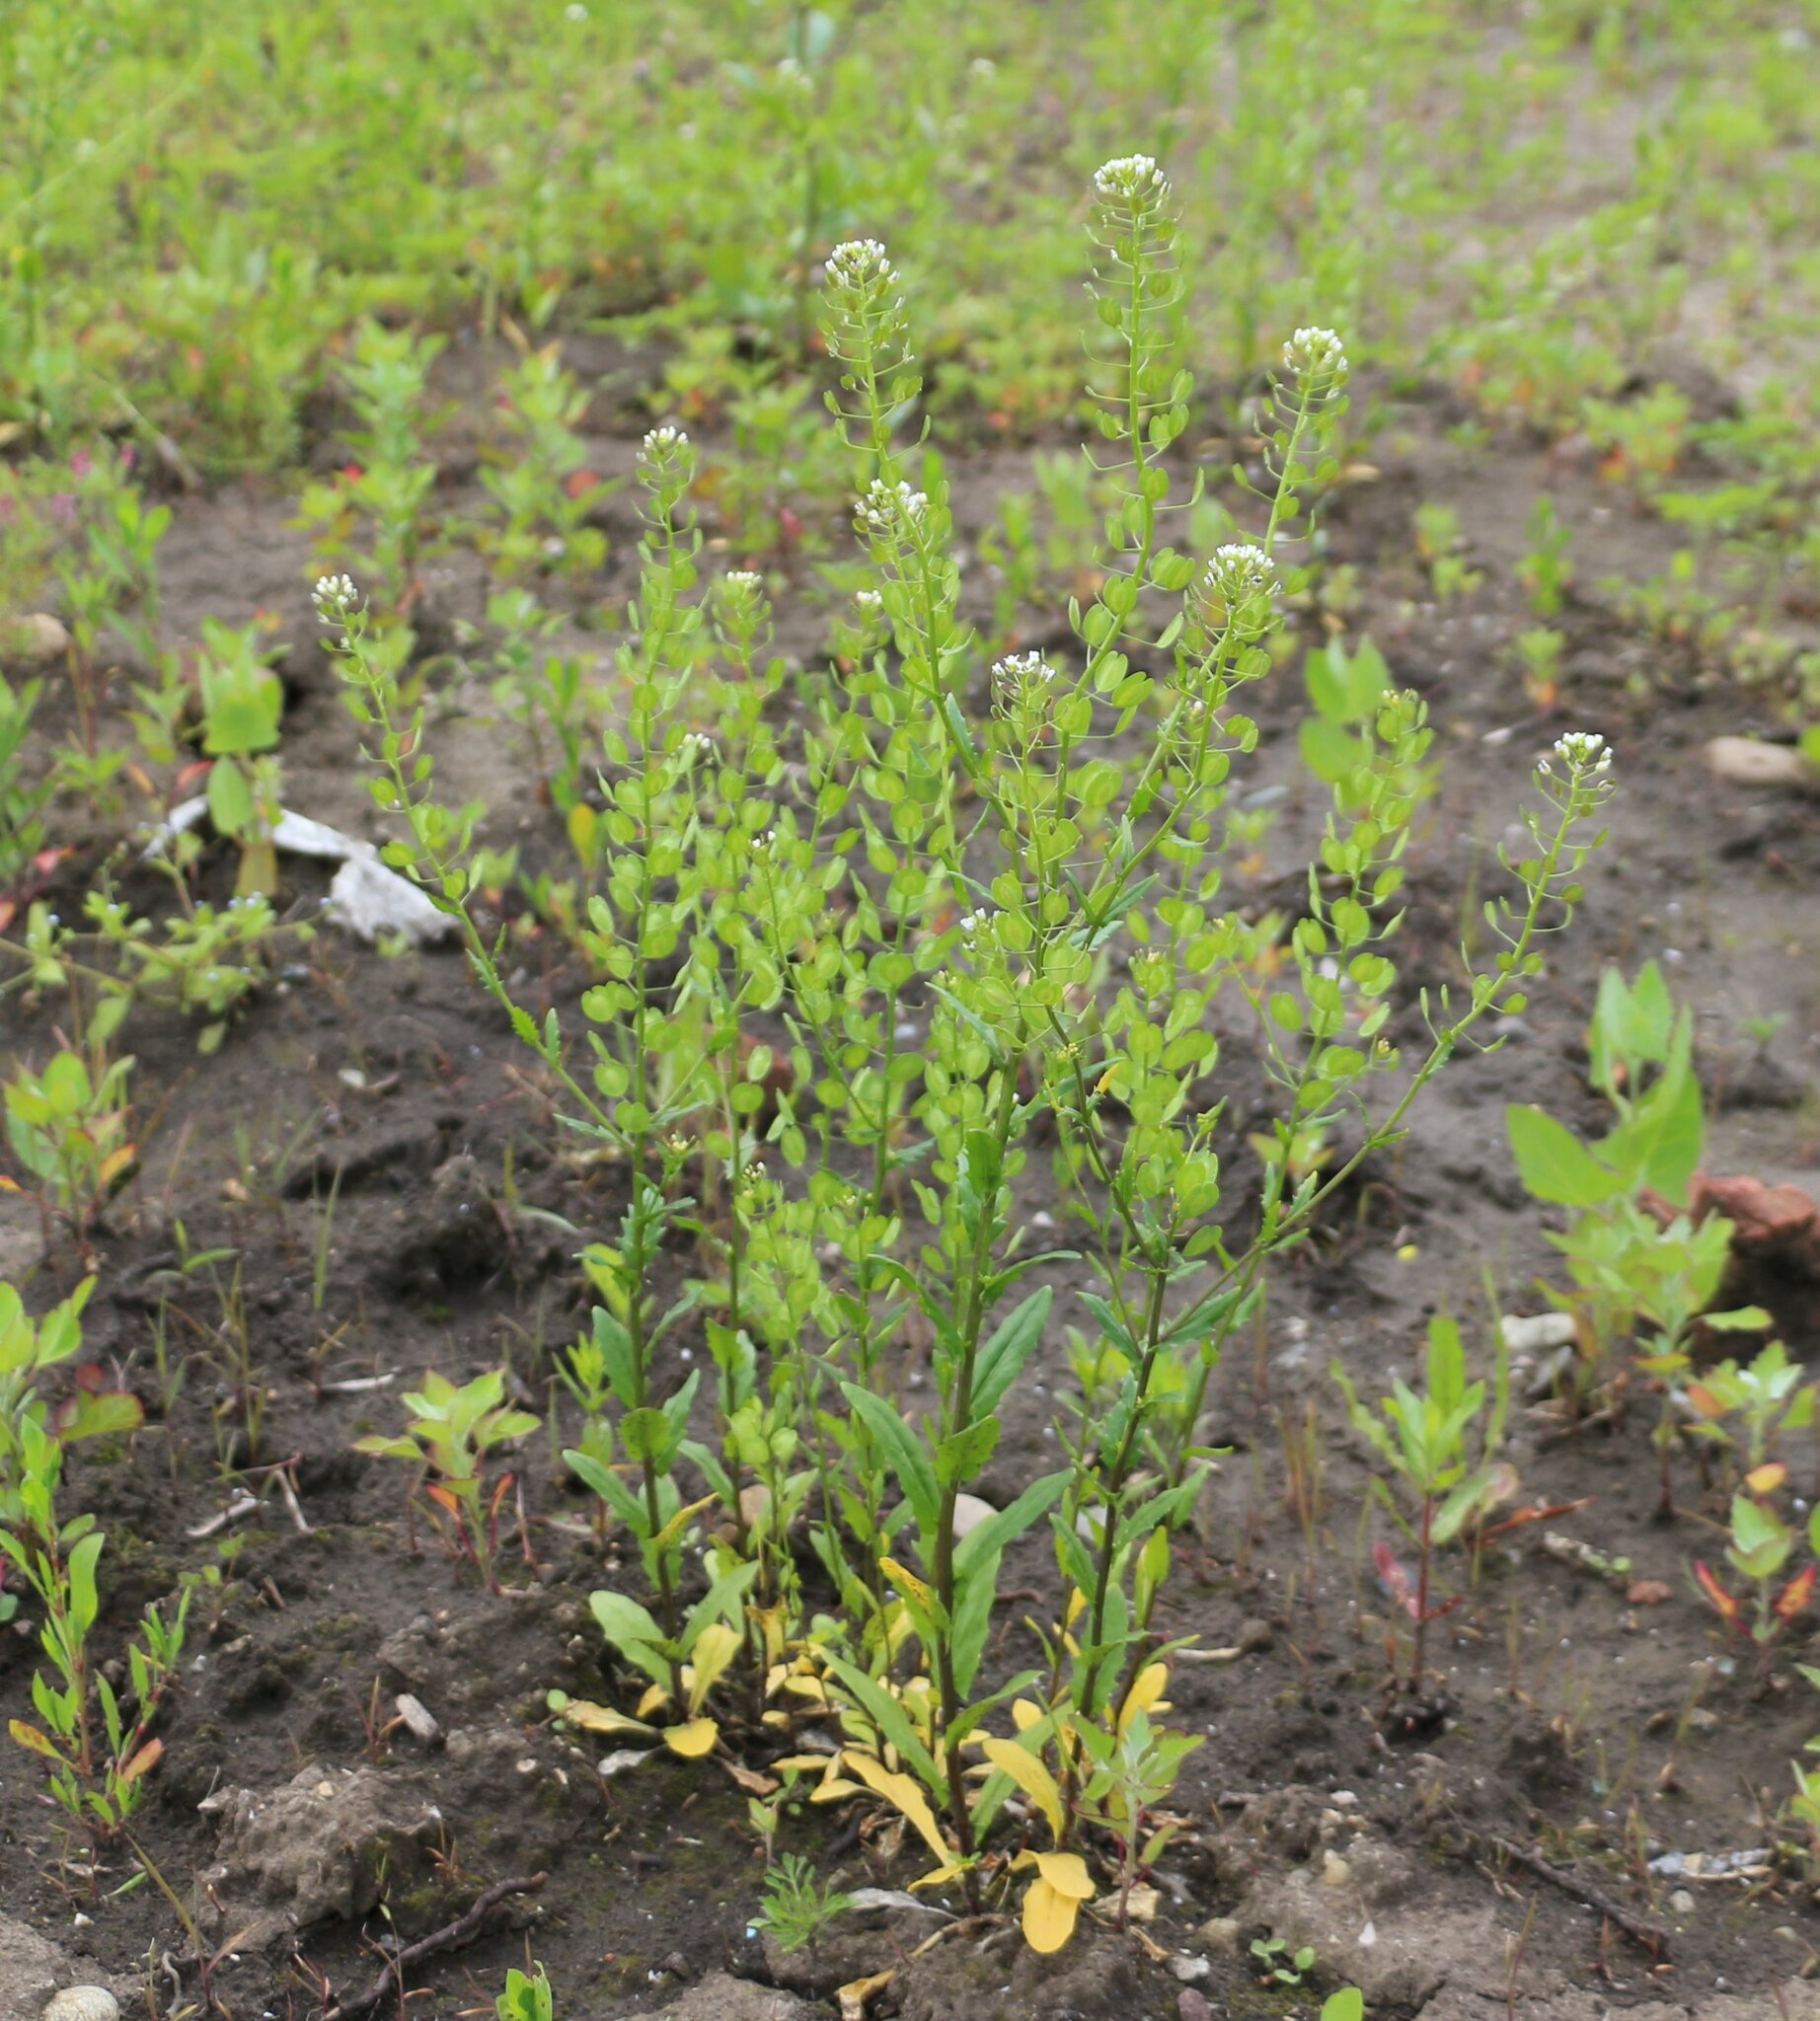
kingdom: Plantae
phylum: Tracheophyta
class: Magnoliopsida
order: Brassicales
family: Brassicaceae
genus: Thlaspi
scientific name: Thlaspi arvense
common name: Field pennycress
